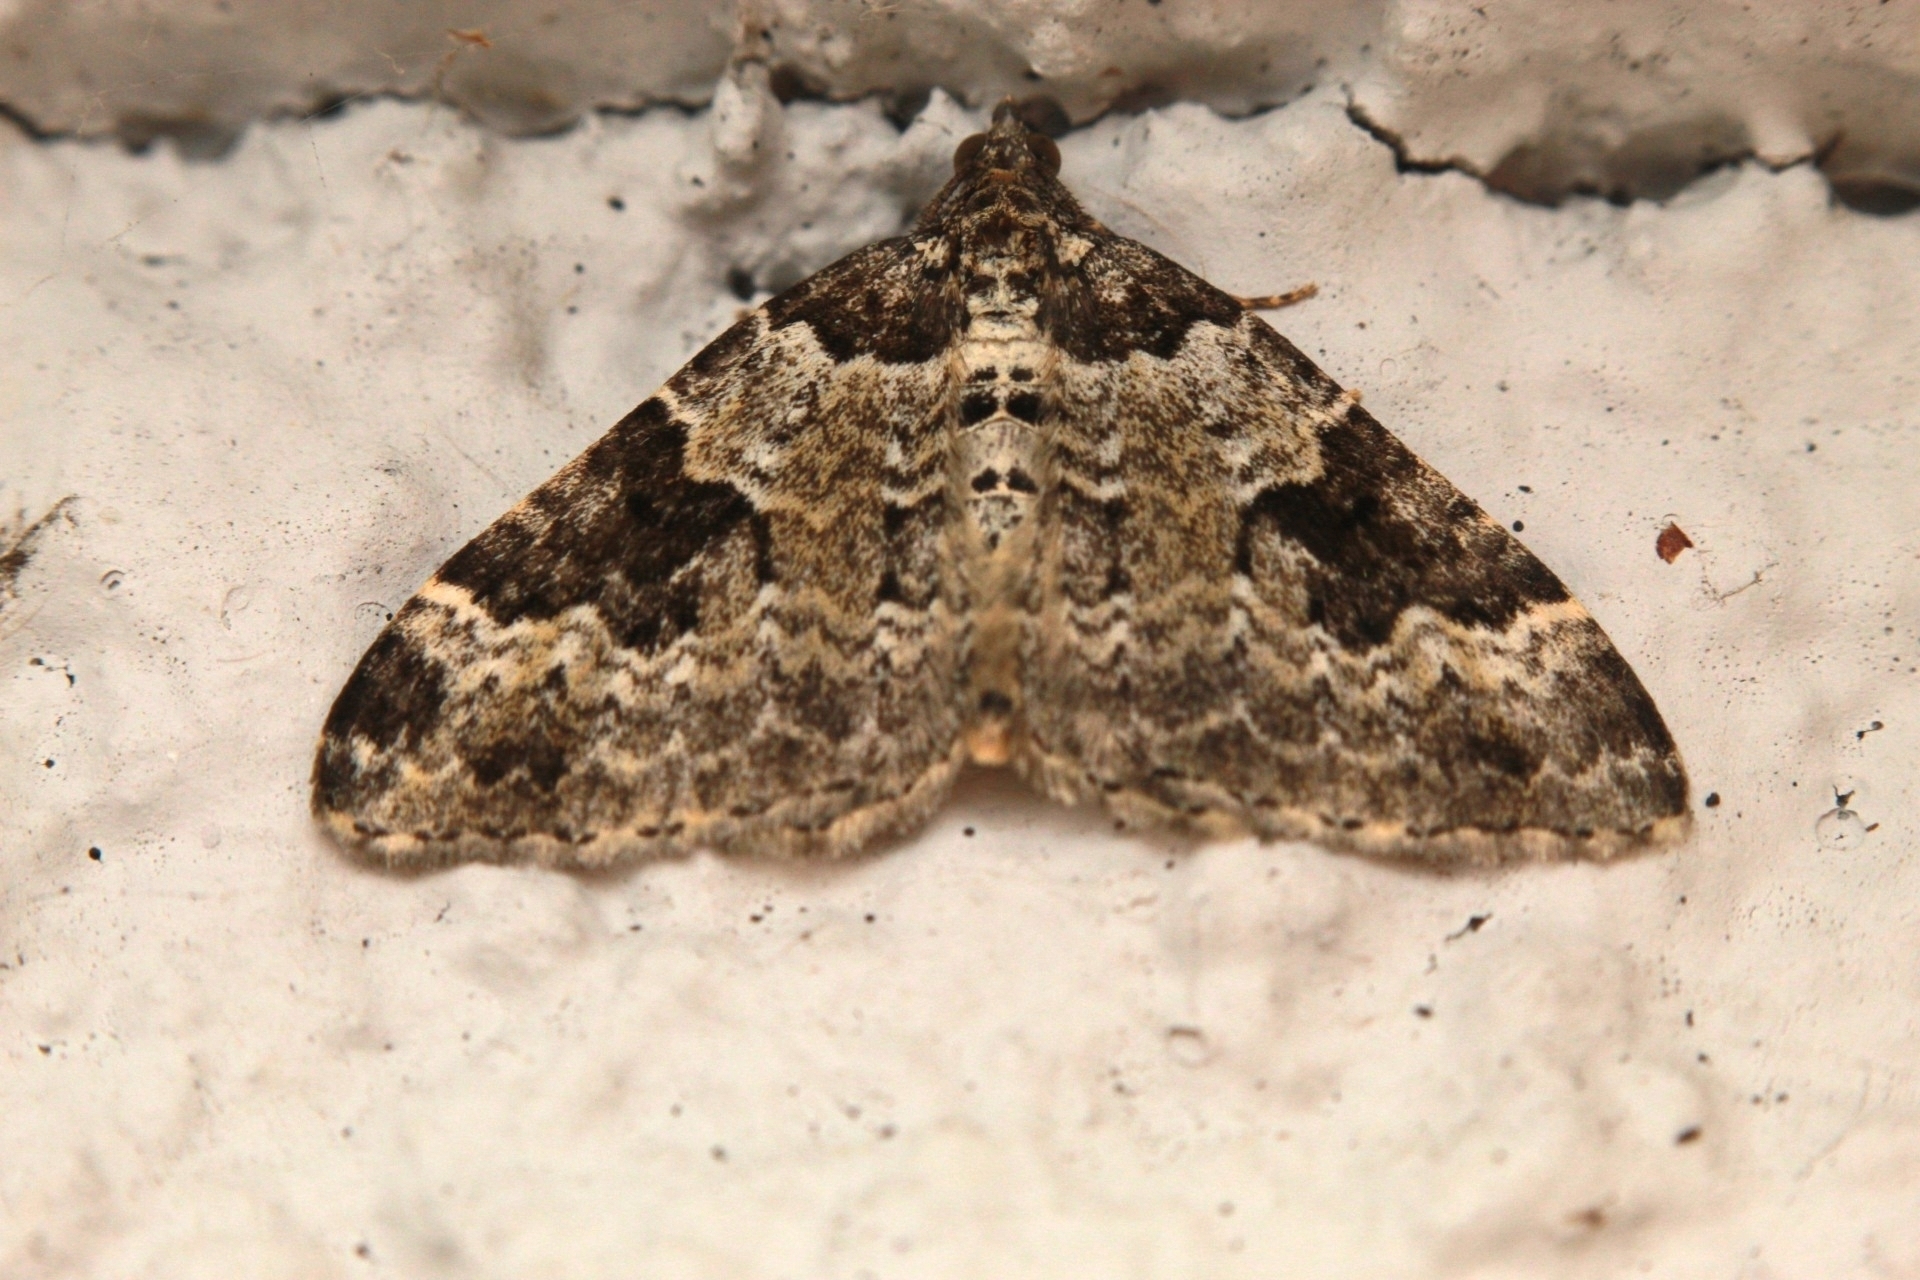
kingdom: Animalia
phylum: Arthropoda
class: Insecta
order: Lepidoptera
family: Geometridae
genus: Xanthorhoe
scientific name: Xanthorhoe fluctuata
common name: Garden carpet
